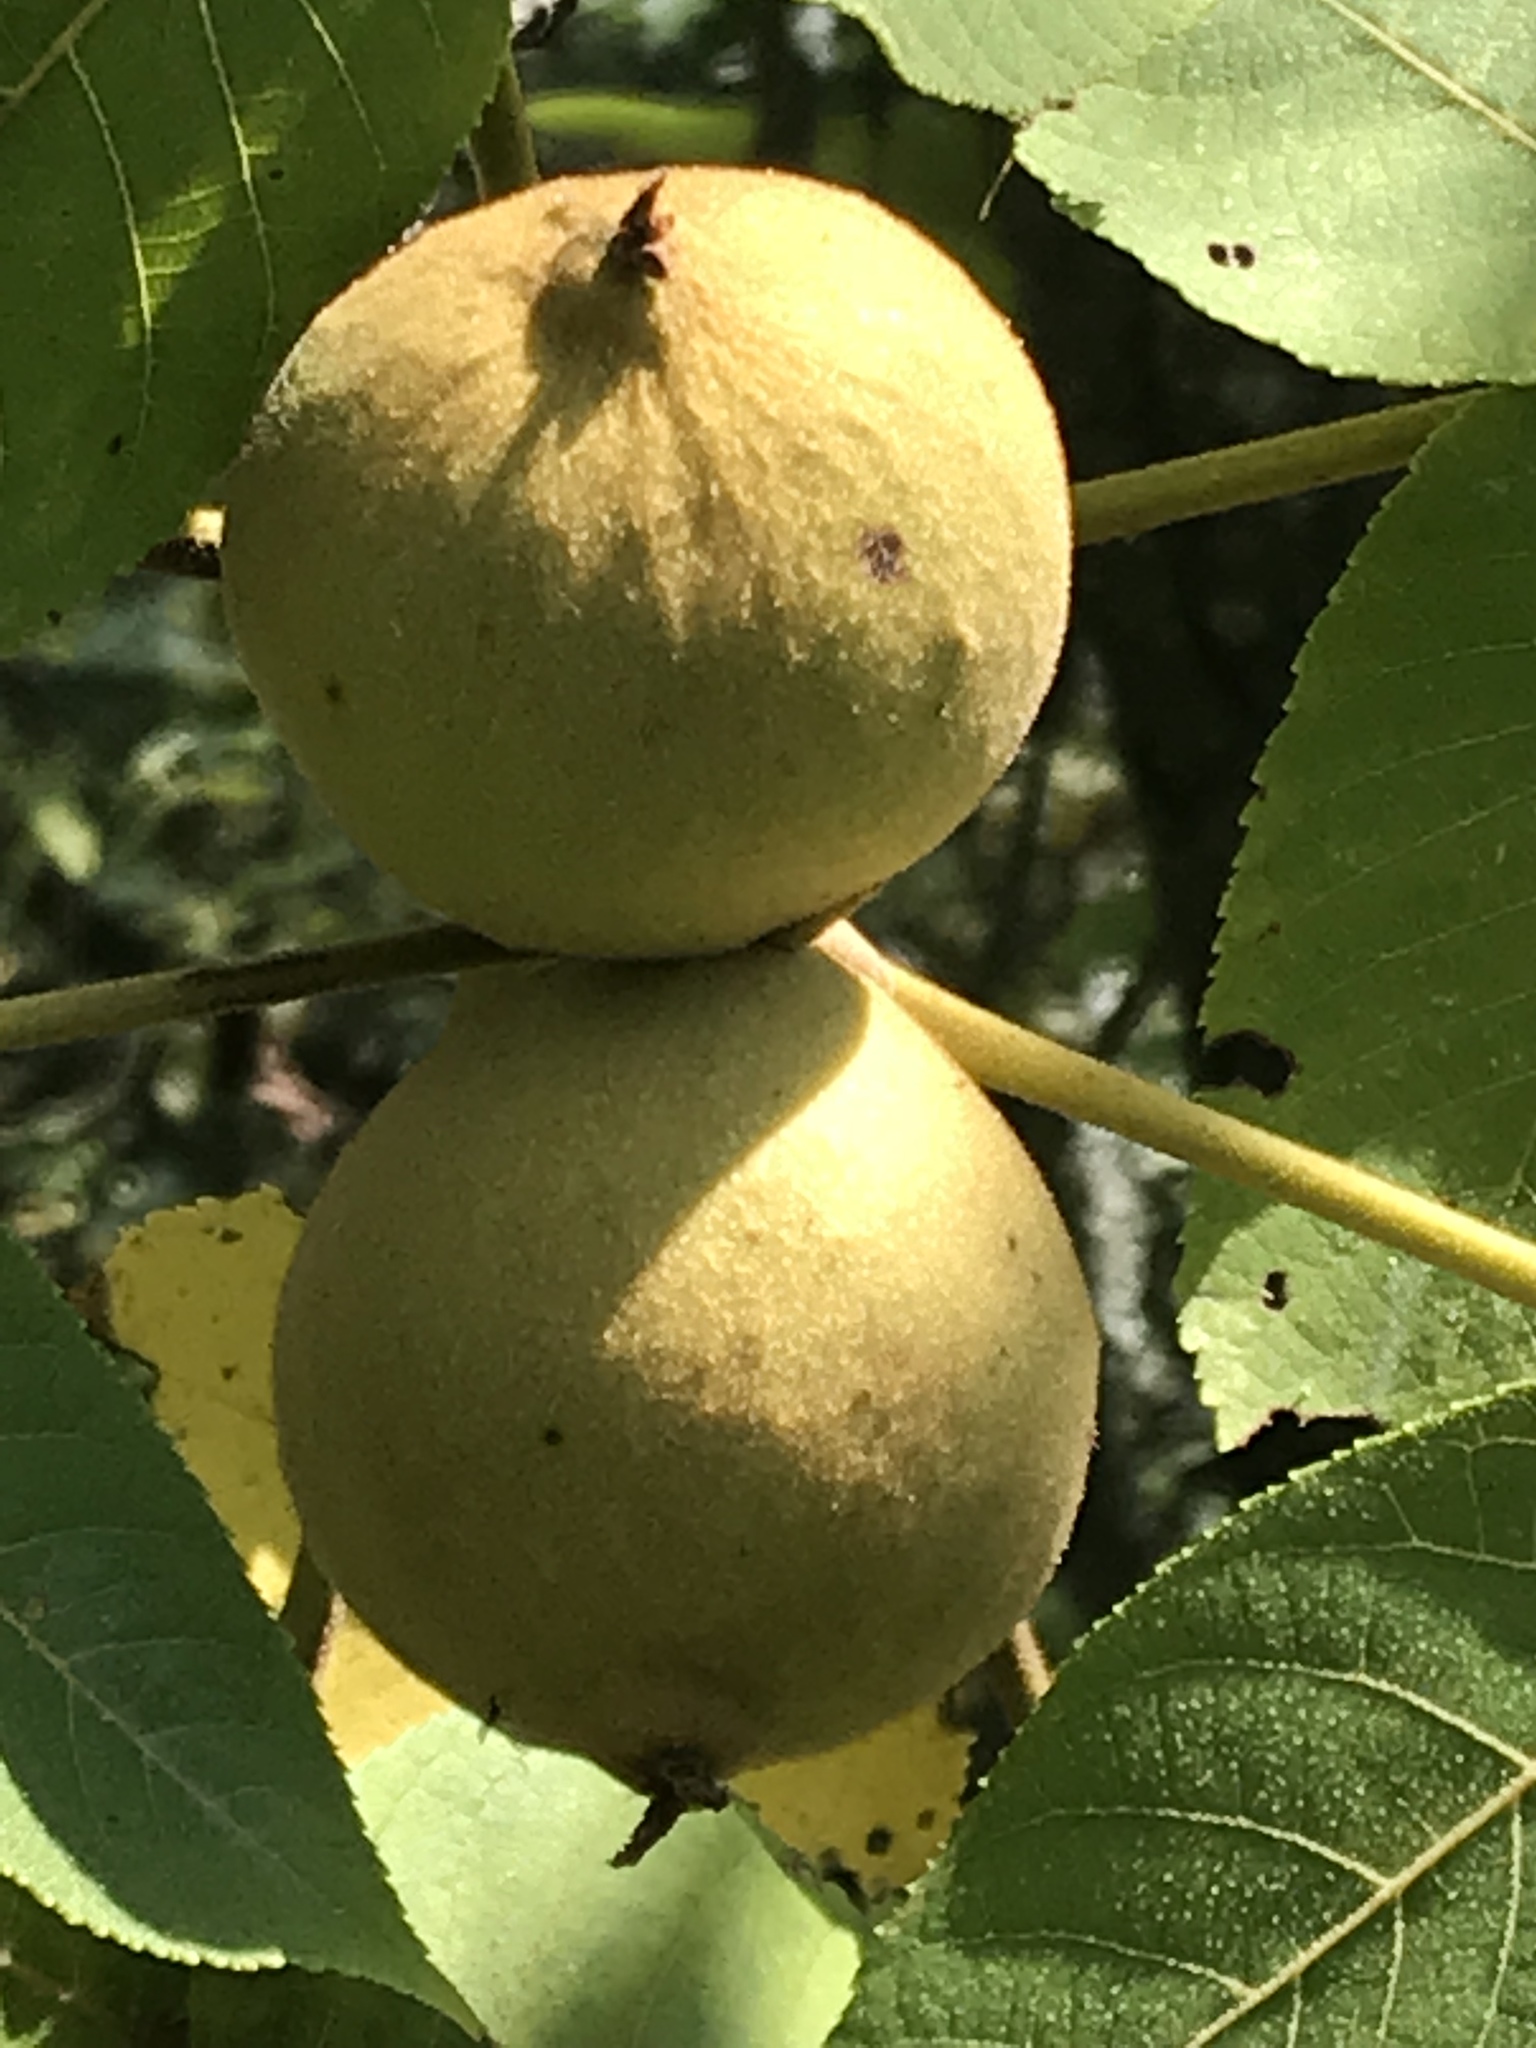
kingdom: Plantae
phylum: Tracheophyta
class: Magnoliopsida
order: Fagales
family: Juglandaceae
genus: Juglans
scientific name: Juglans mollis
